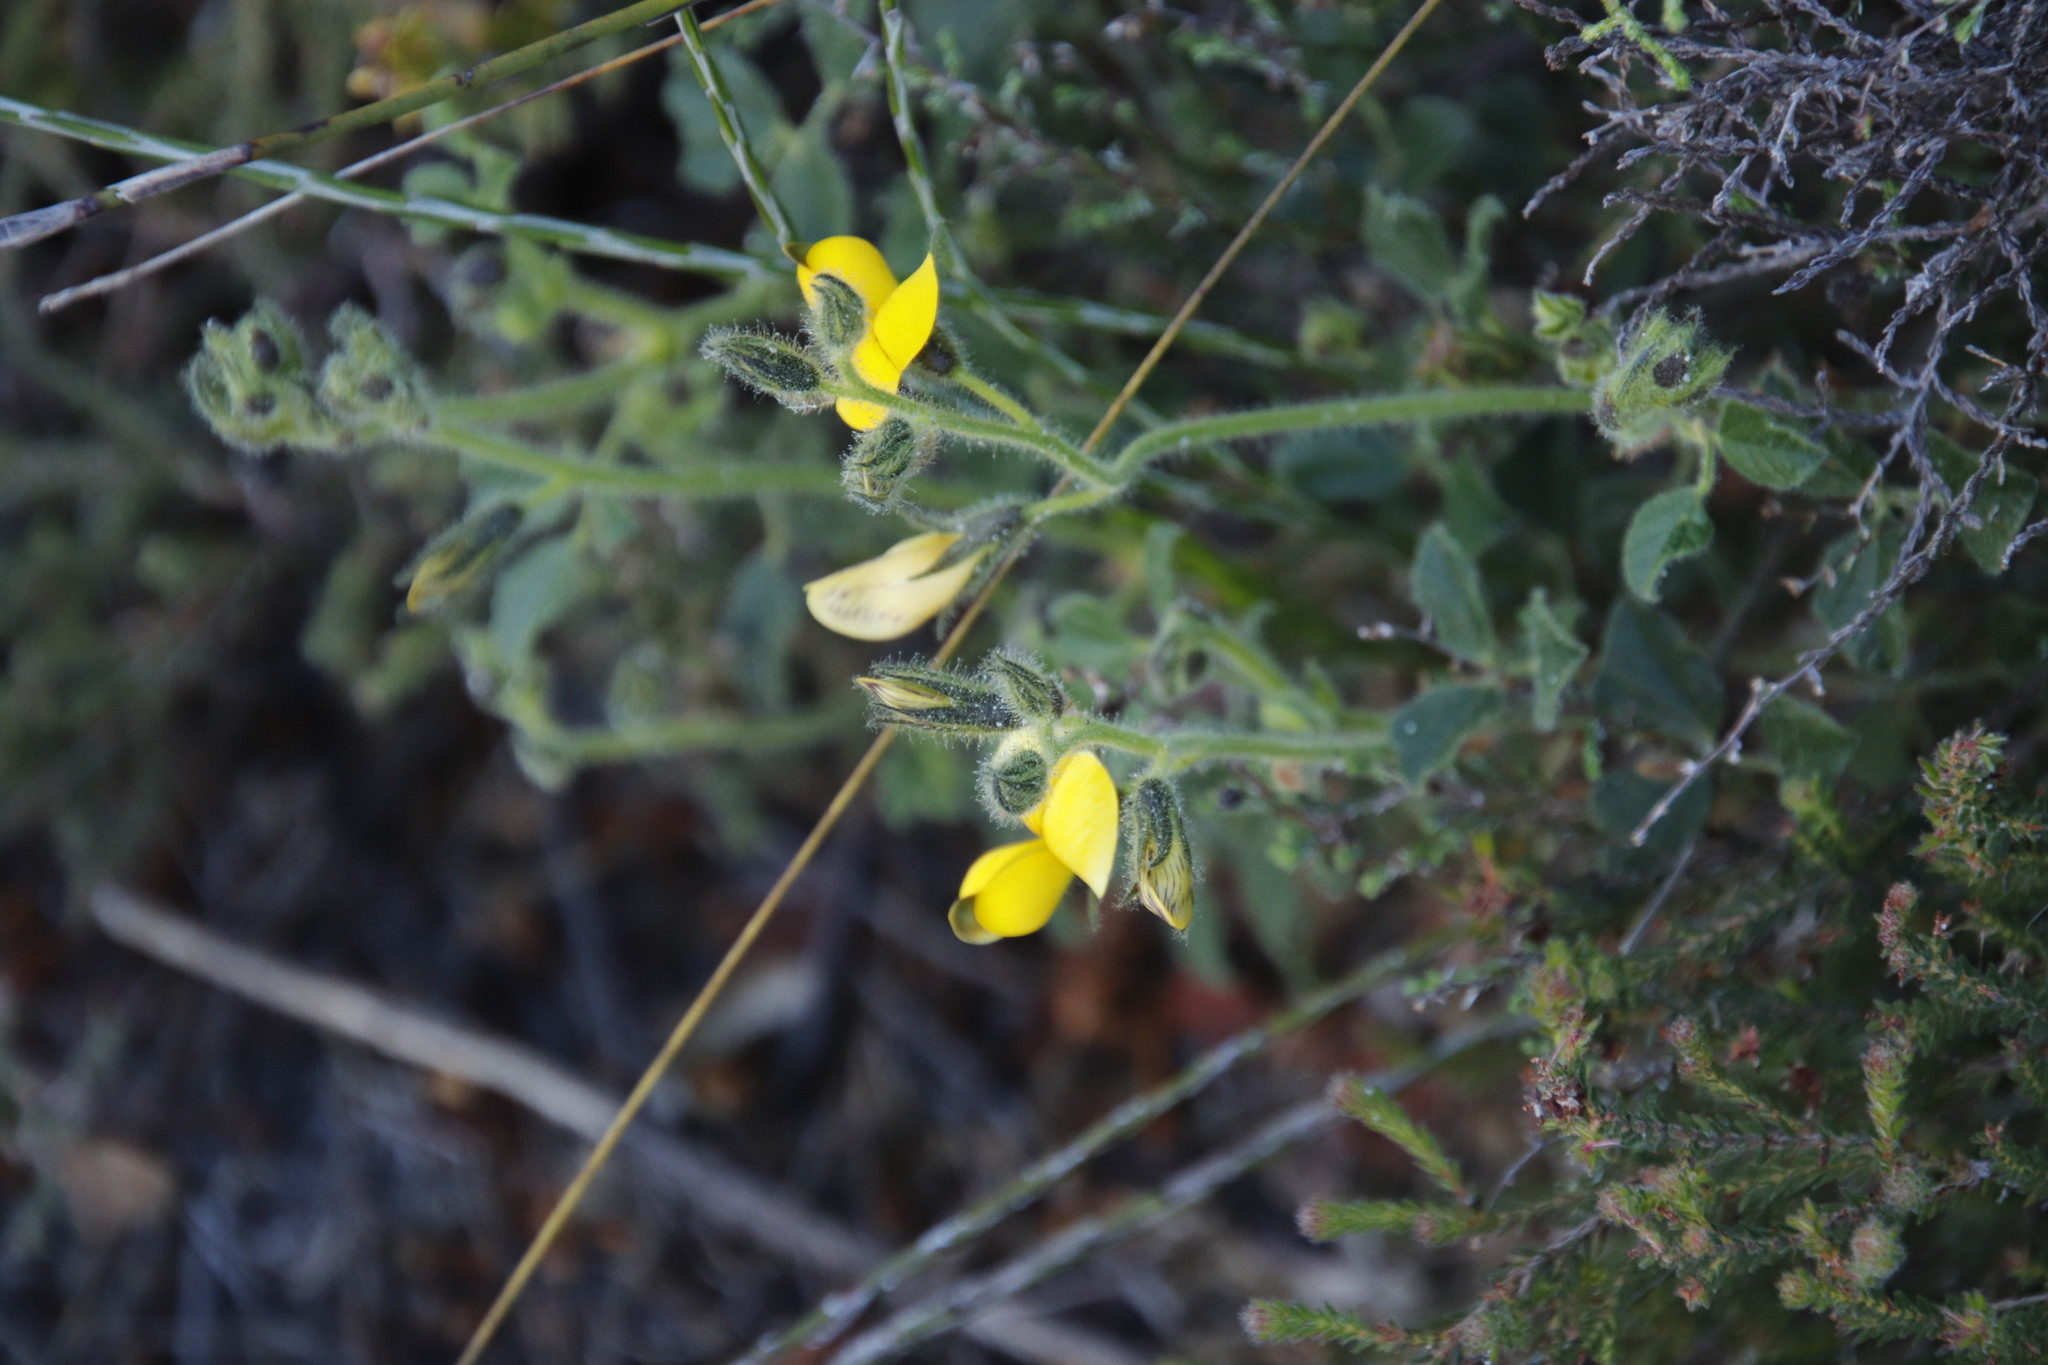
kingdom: Plantae
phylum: Tracheophyta
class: Magnoliopsida
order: Fabales
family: Fabaceae
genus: Bolusafra
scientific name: Bolusafra bituminosa
